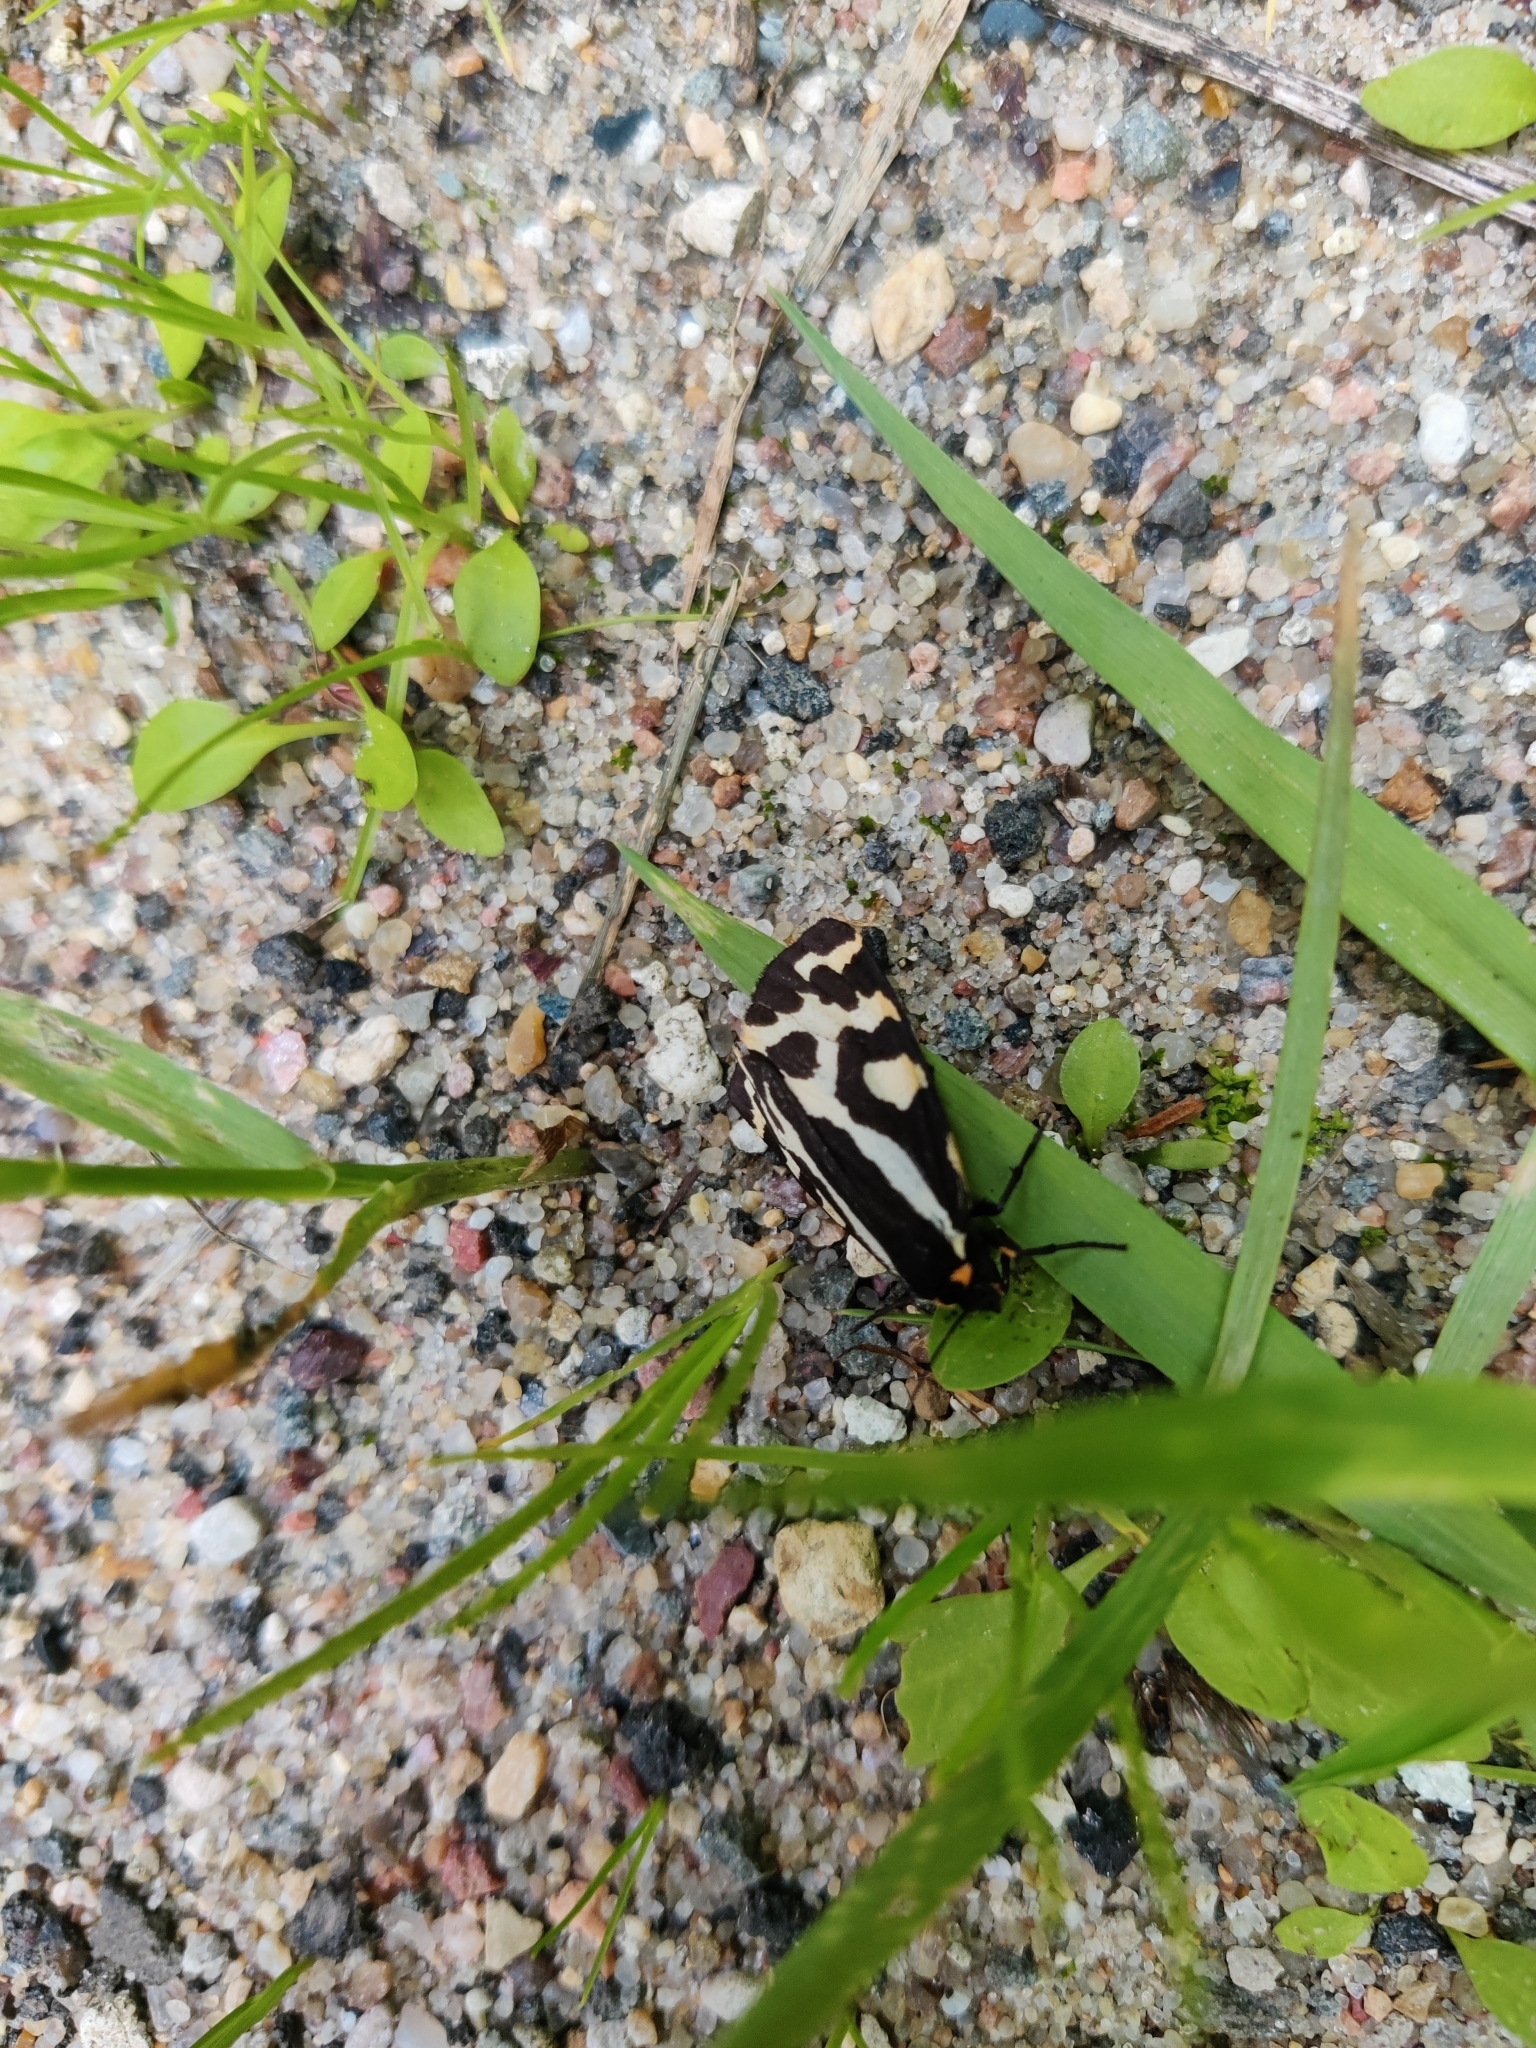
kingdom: Animalia
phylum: Arthropoda
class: Insecta
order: Lepidoptera
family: Erebidae
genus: Parasemia
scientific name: Parasemia plantaginis
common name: Wood tiger
